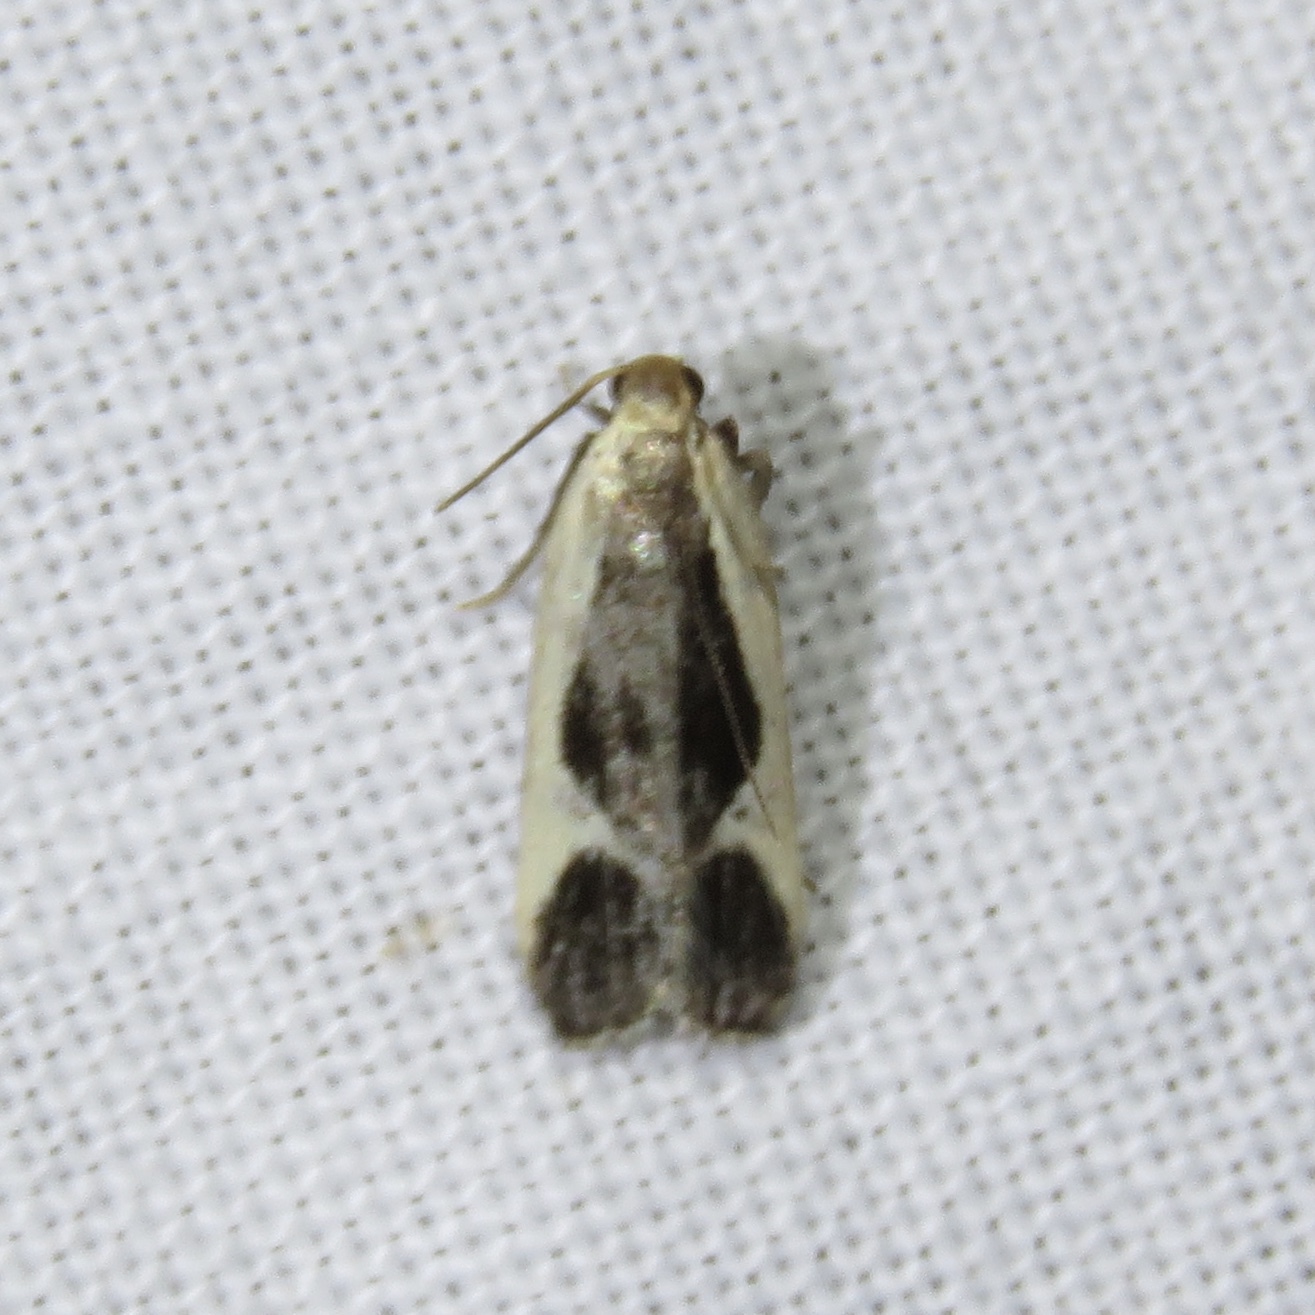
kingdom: Animalia
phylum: Arthropoda
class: Insecta
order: Lepidoptera
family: Gelechiidae
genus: Dichomeris
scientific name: Dichomeris flavocostella
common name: Cream-edged dichomeris moth
